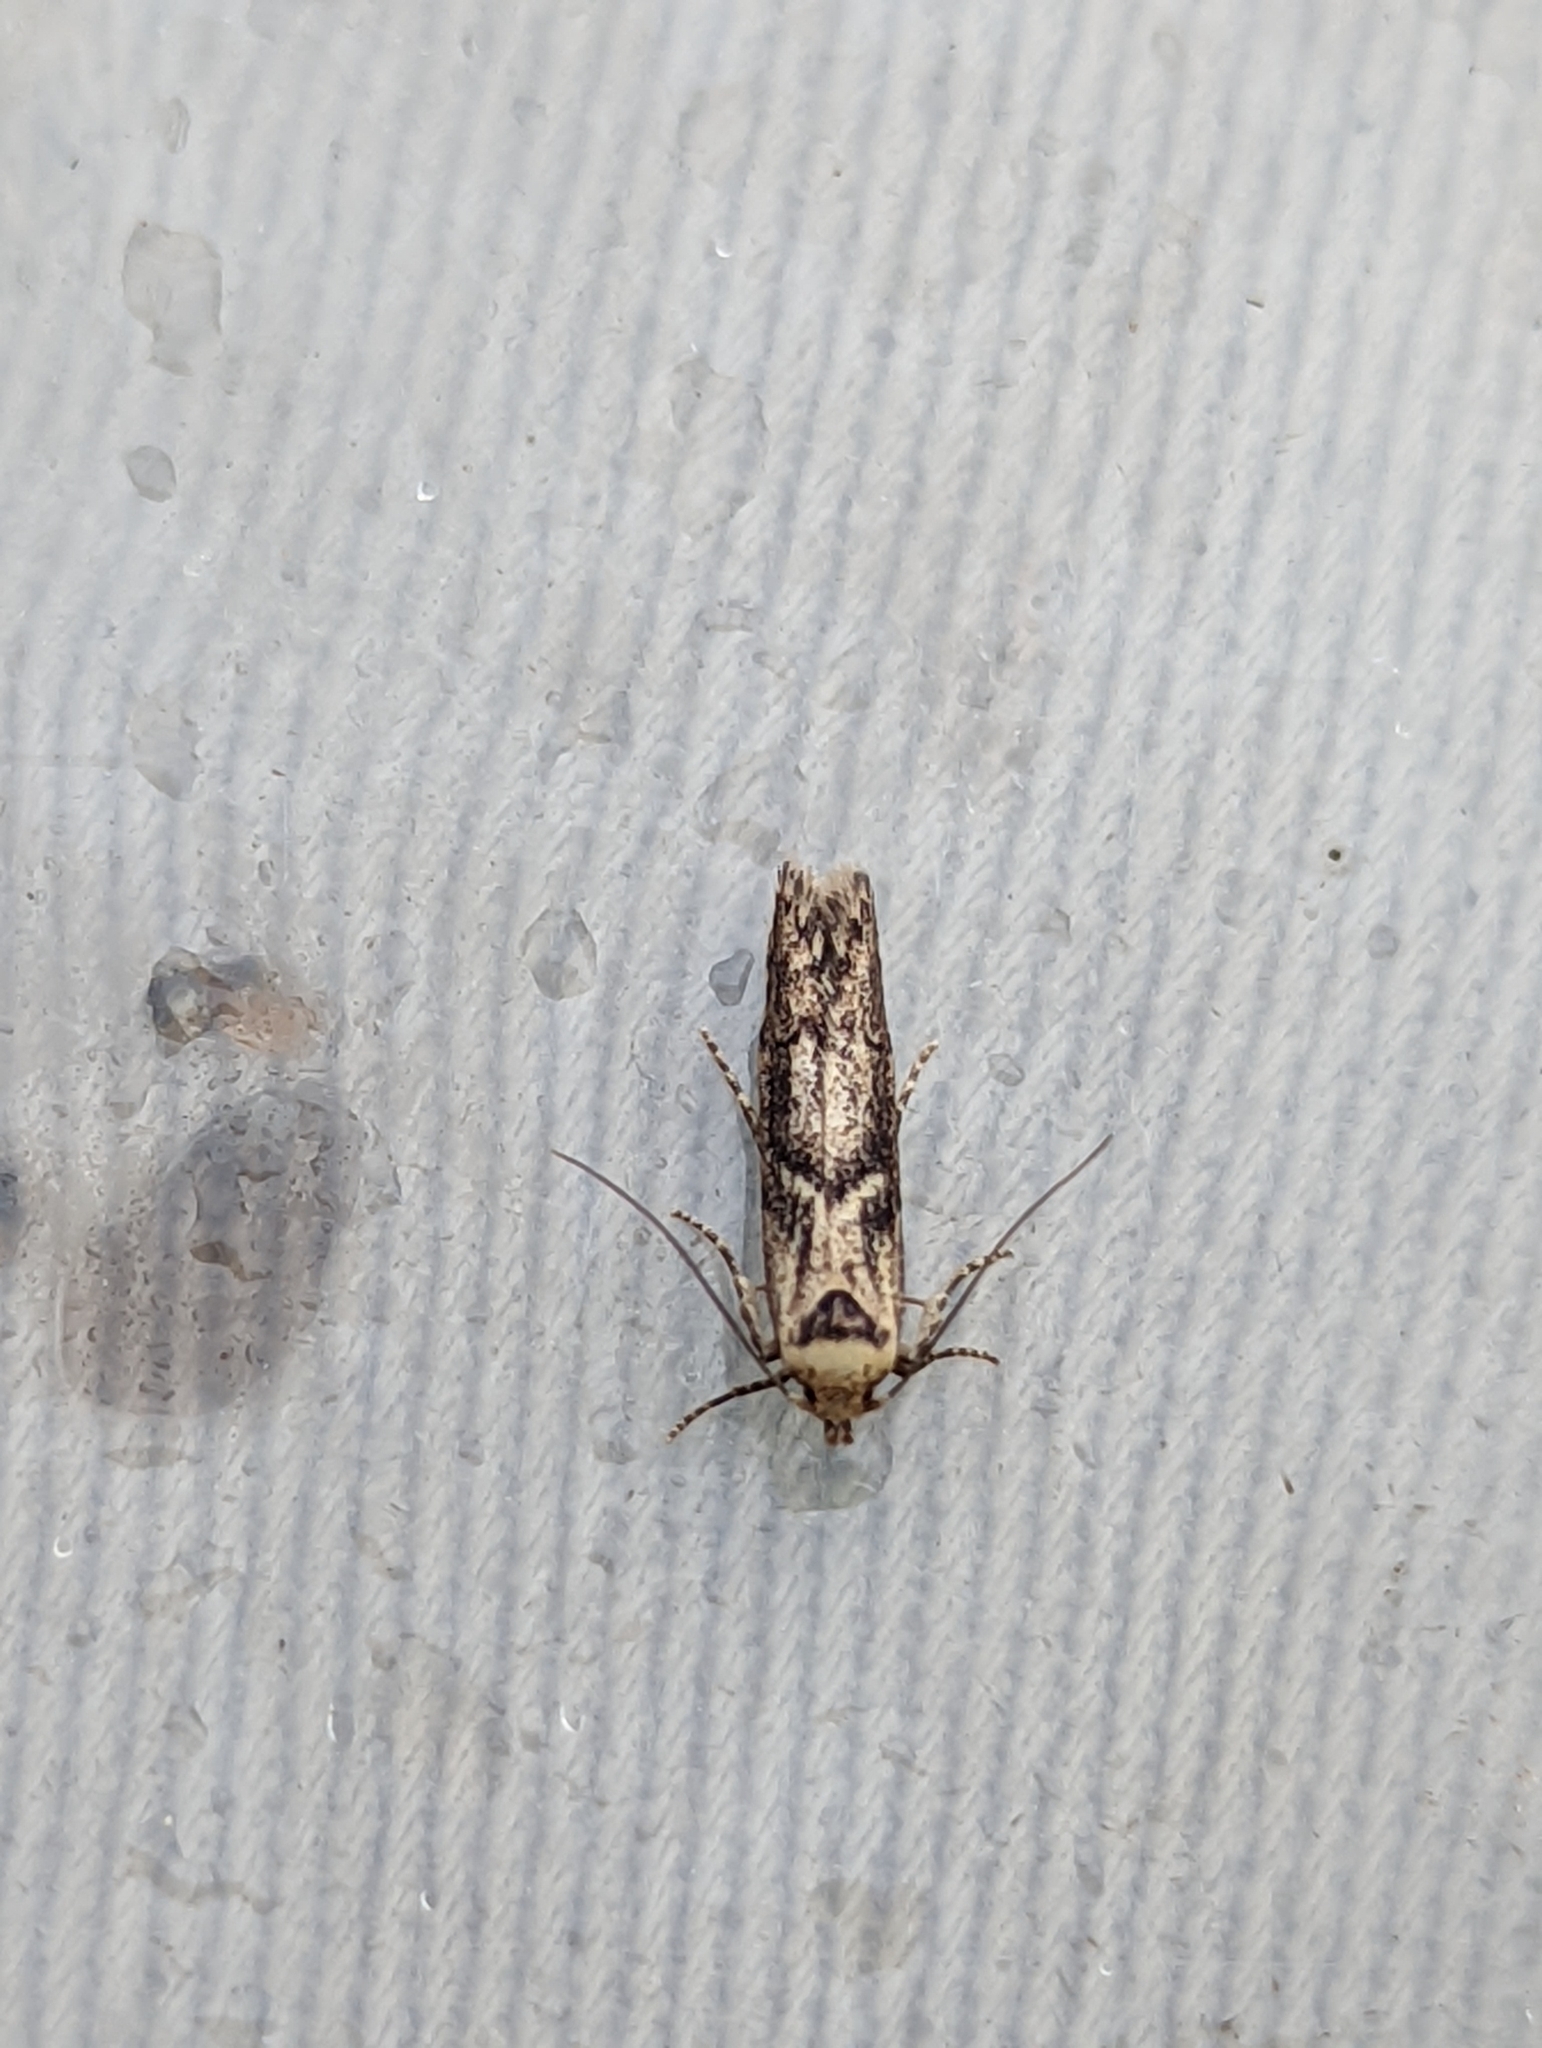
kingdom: Animalia
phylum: Arthropoda
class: Insecta
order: Lepidoptera
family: Blastobasidae
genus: Blastobasis
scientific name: Blastobasis adustella
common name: Dingy dowd
